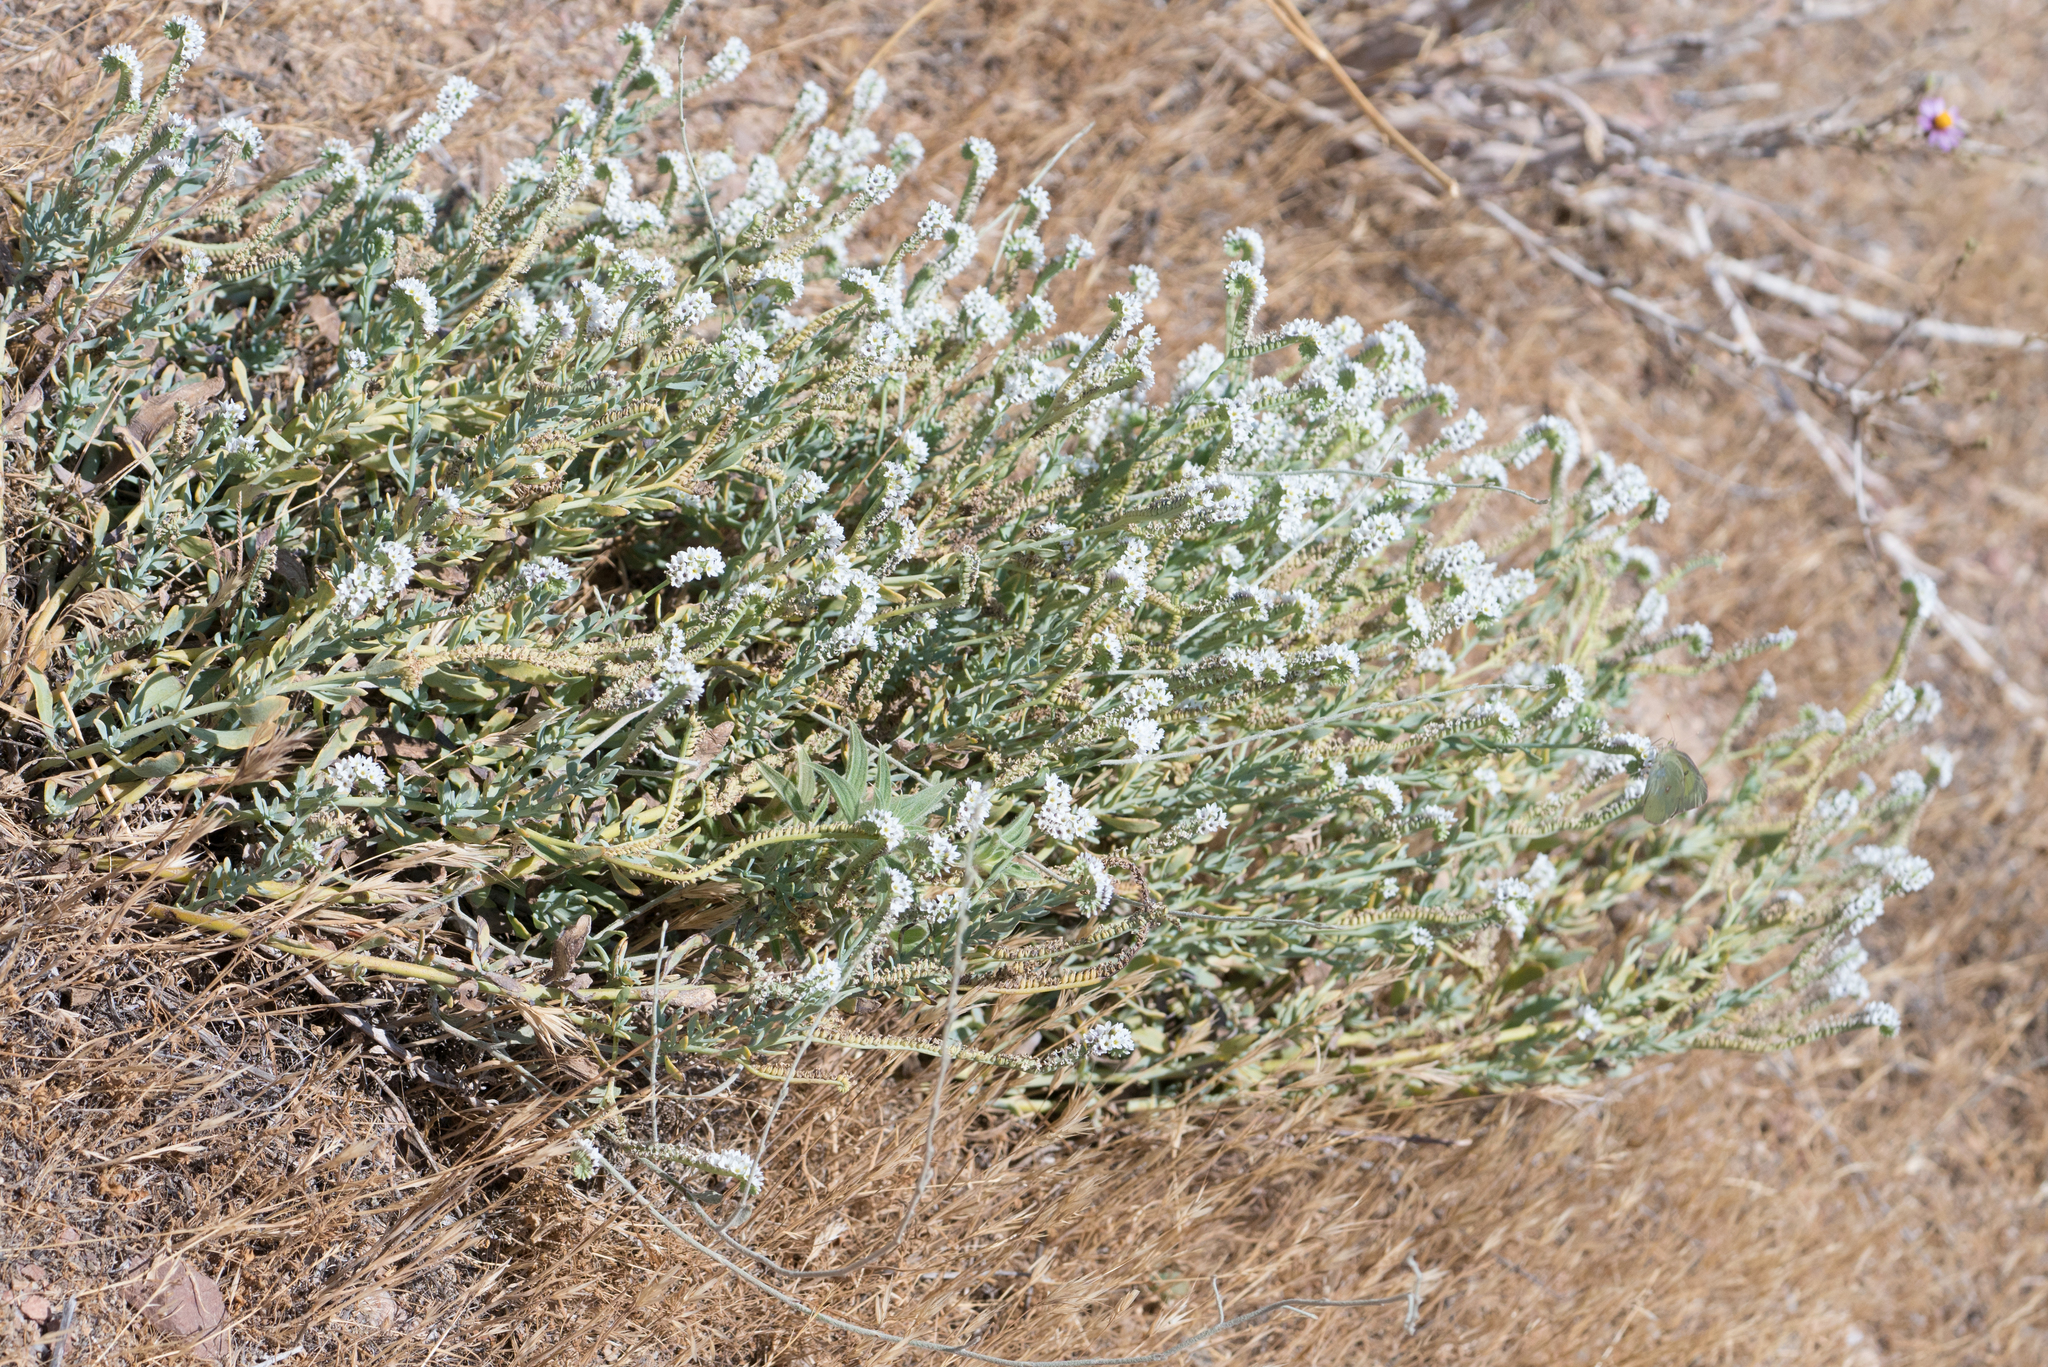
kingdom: Plantae
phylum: Tracheophyta
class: Magnoliopsida
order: Boraginales
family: Heliotropiaceae
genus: Heliotropium
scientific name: Heliotropium curassavicum
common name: Seaside heliotrope
